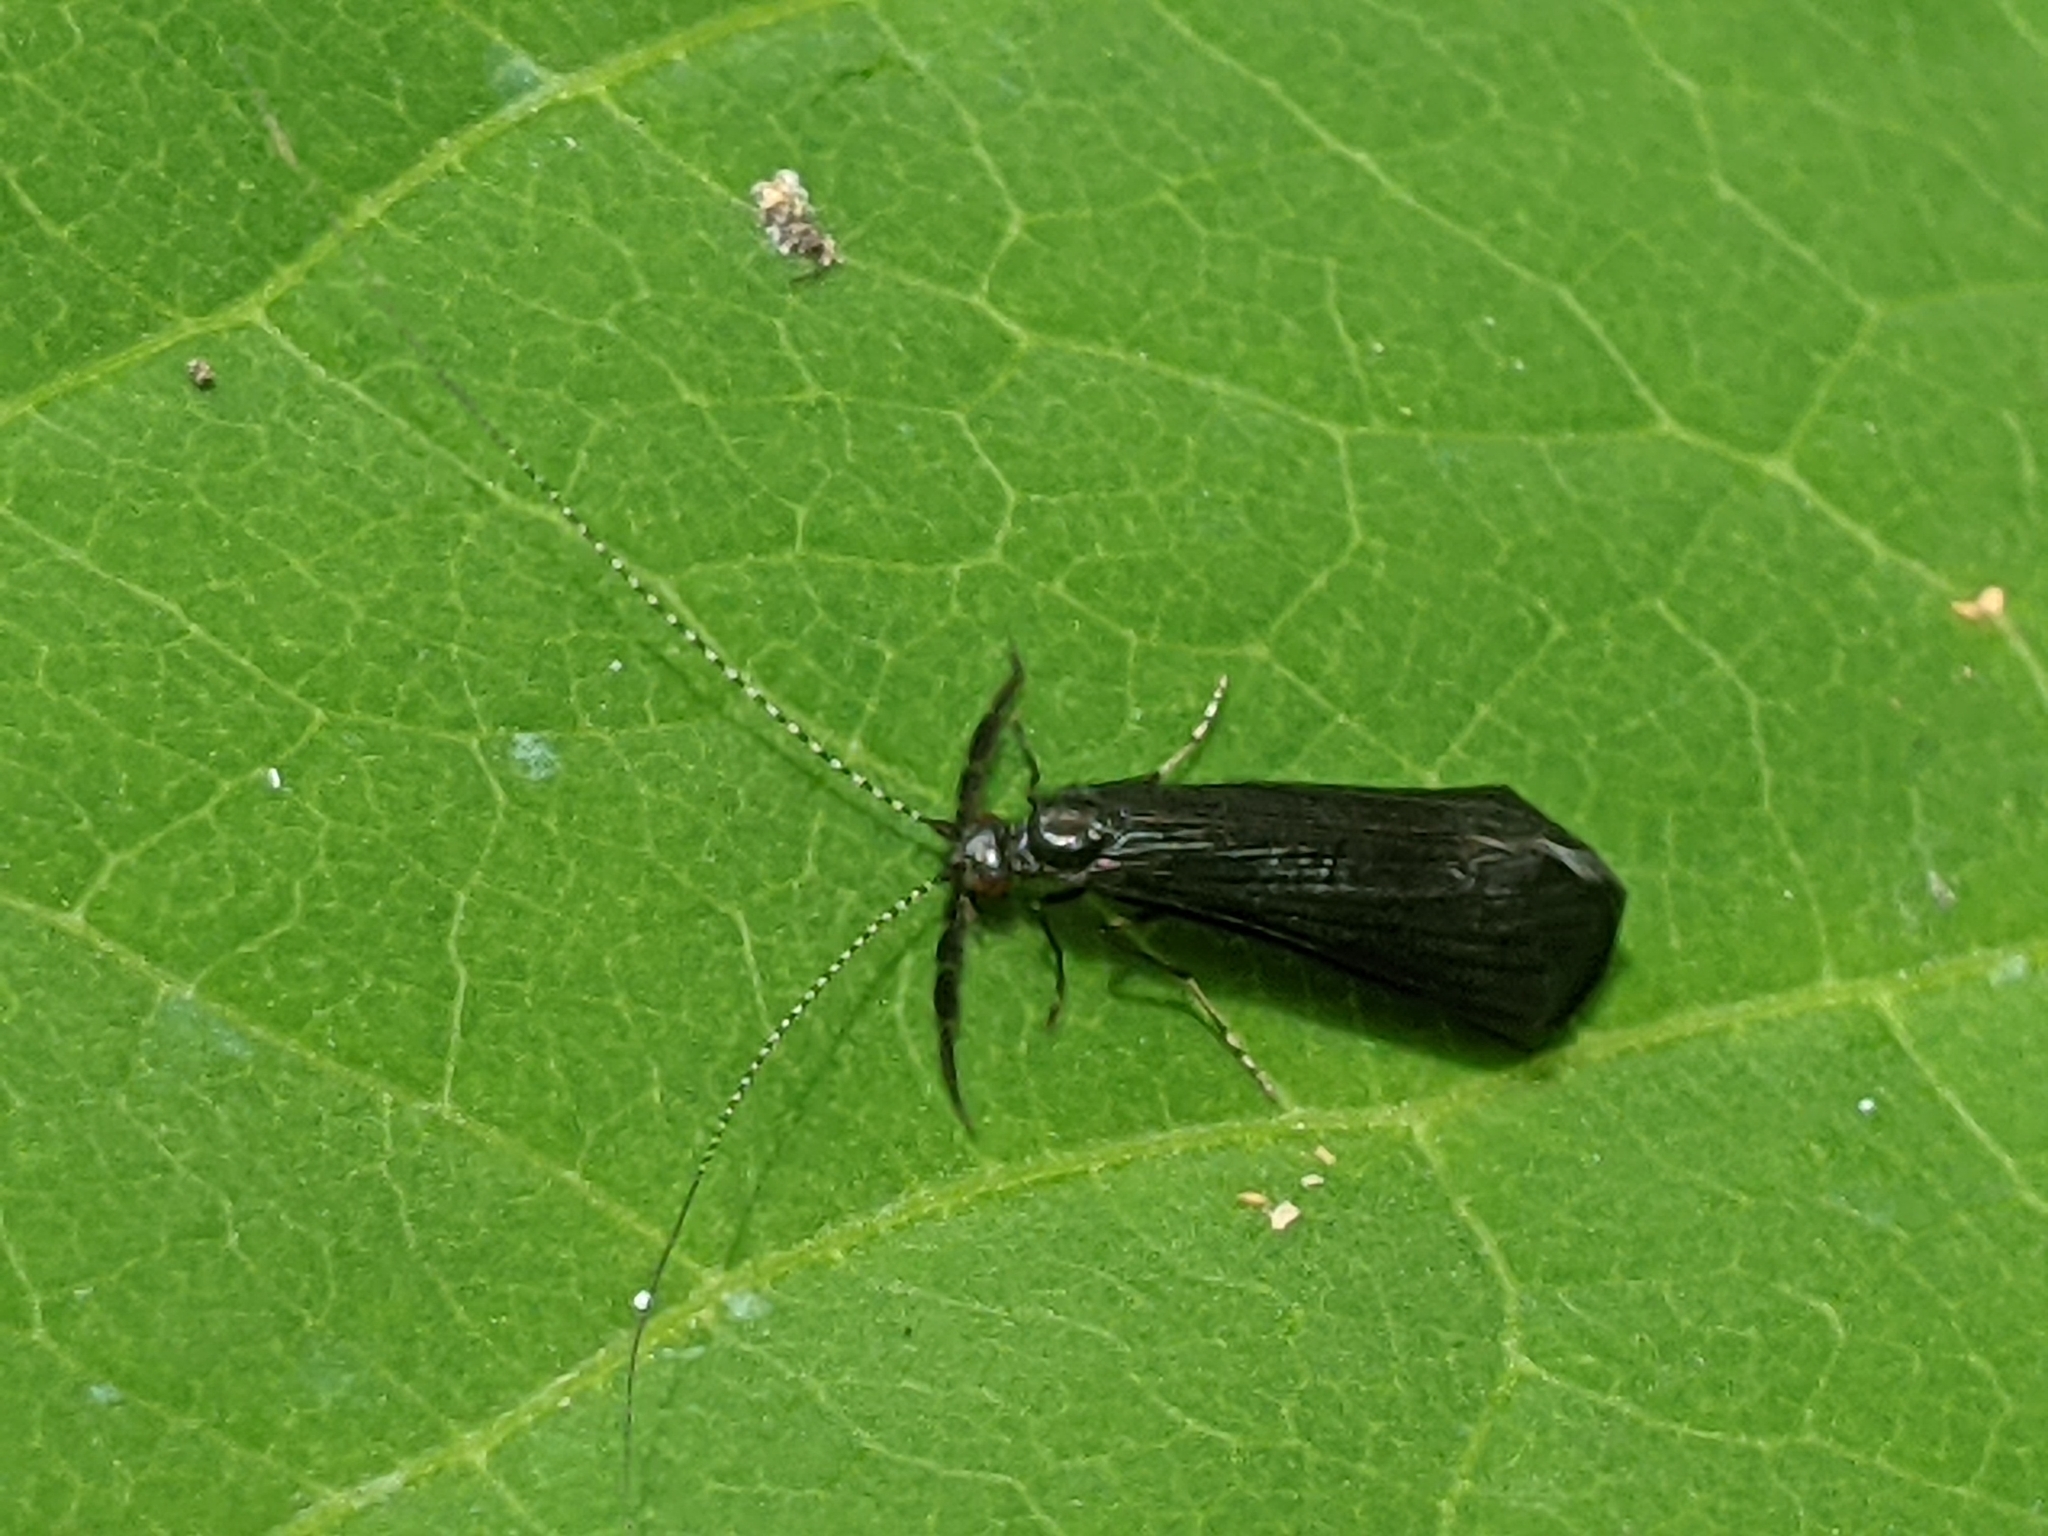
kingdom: Animalia
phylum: Arthropoda
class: Insecta
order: Trichoptera
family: Leptoceridae
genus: Mystacides
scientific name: Mystacides sepulchralis
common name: Black dancer caddisfly
